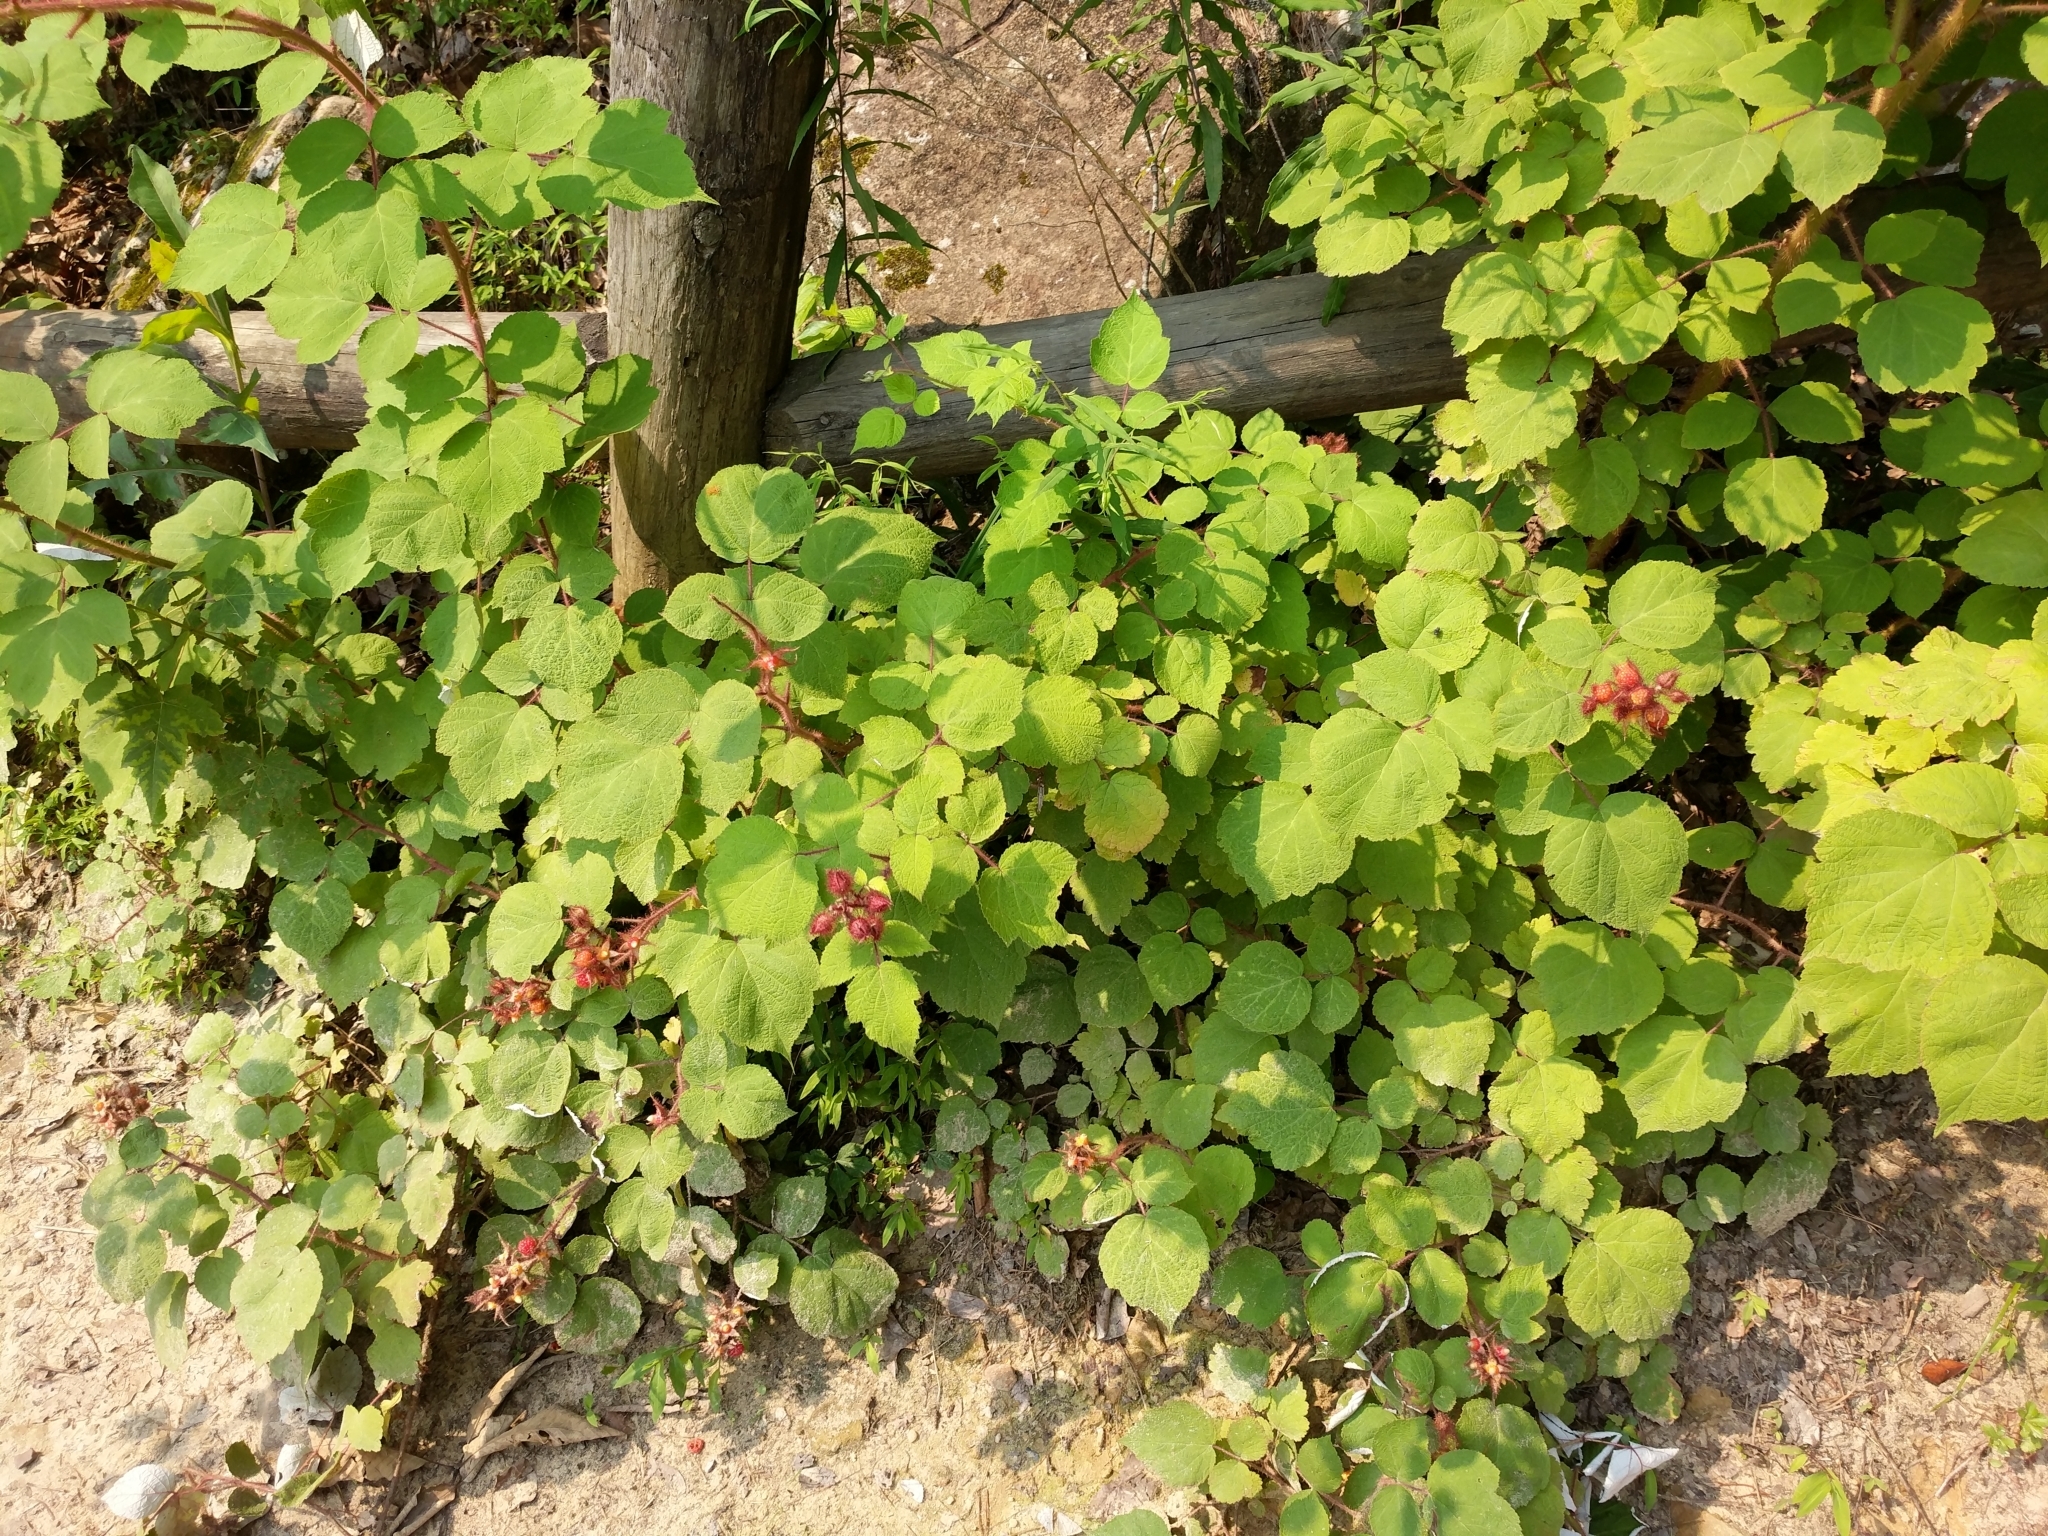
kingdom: Plantae
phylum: Tracheophyta
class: Magnoliopsida
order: Rosales
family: Rosaceae
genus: Rubus
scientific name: Rubus phoenicolasius
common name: Japanese wineberry
